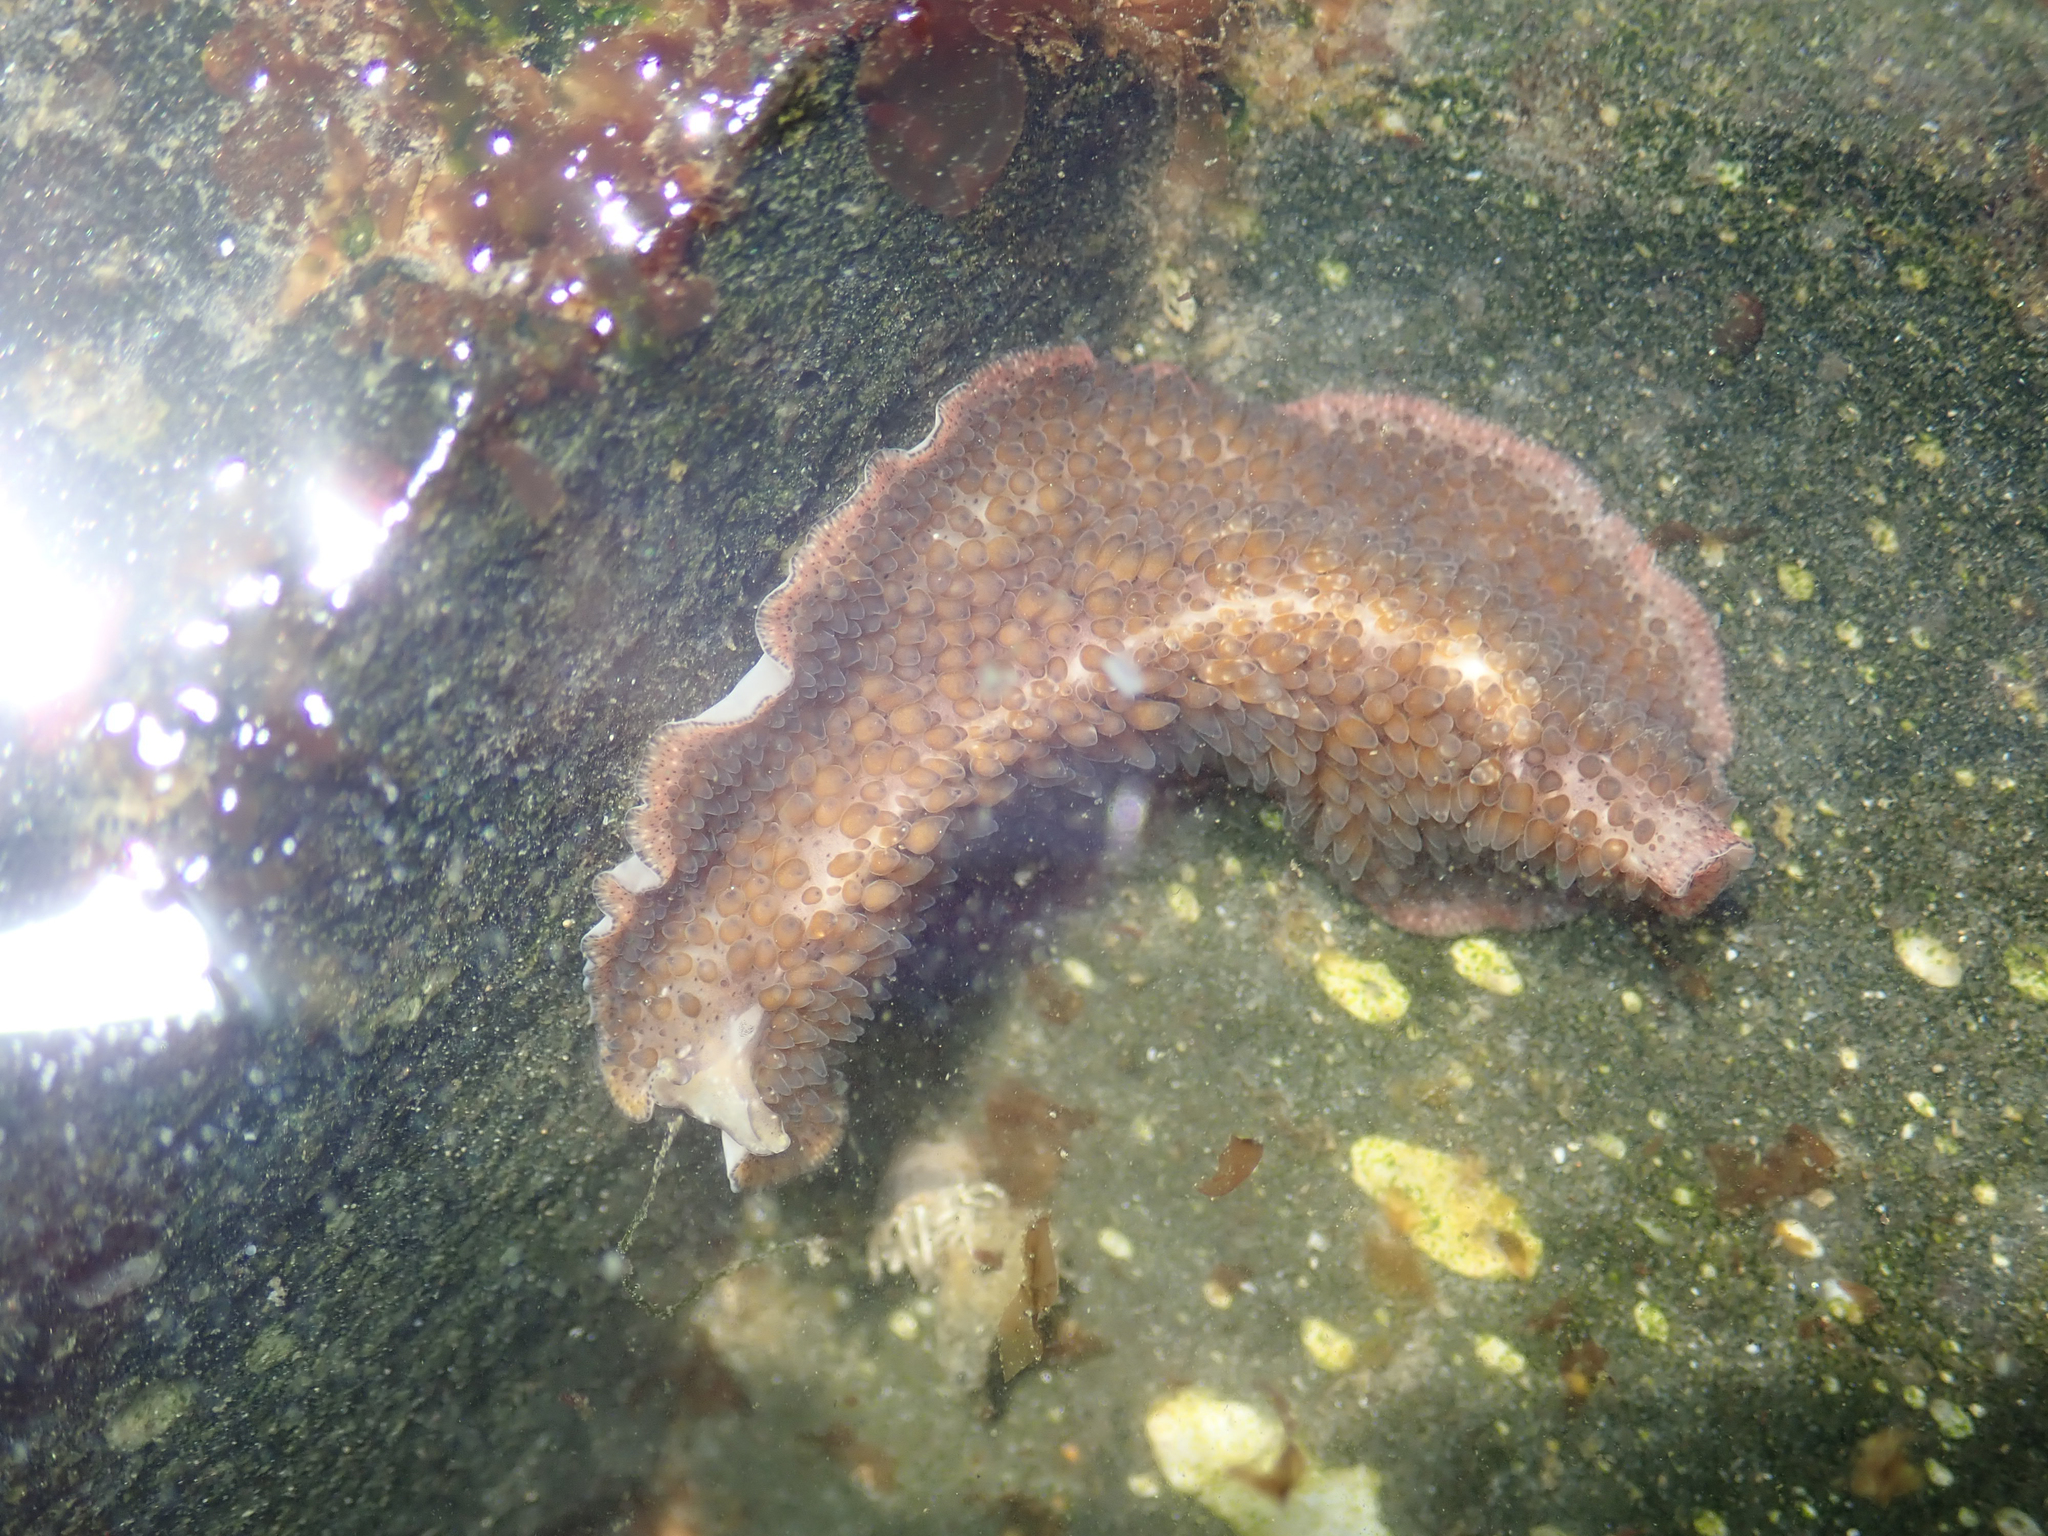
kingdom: Animalia
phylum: Platyhelminthes
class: Turbellaria
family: Pseudocerotidae
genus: Thysanozoon
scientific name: Thysanozoon brocchii
